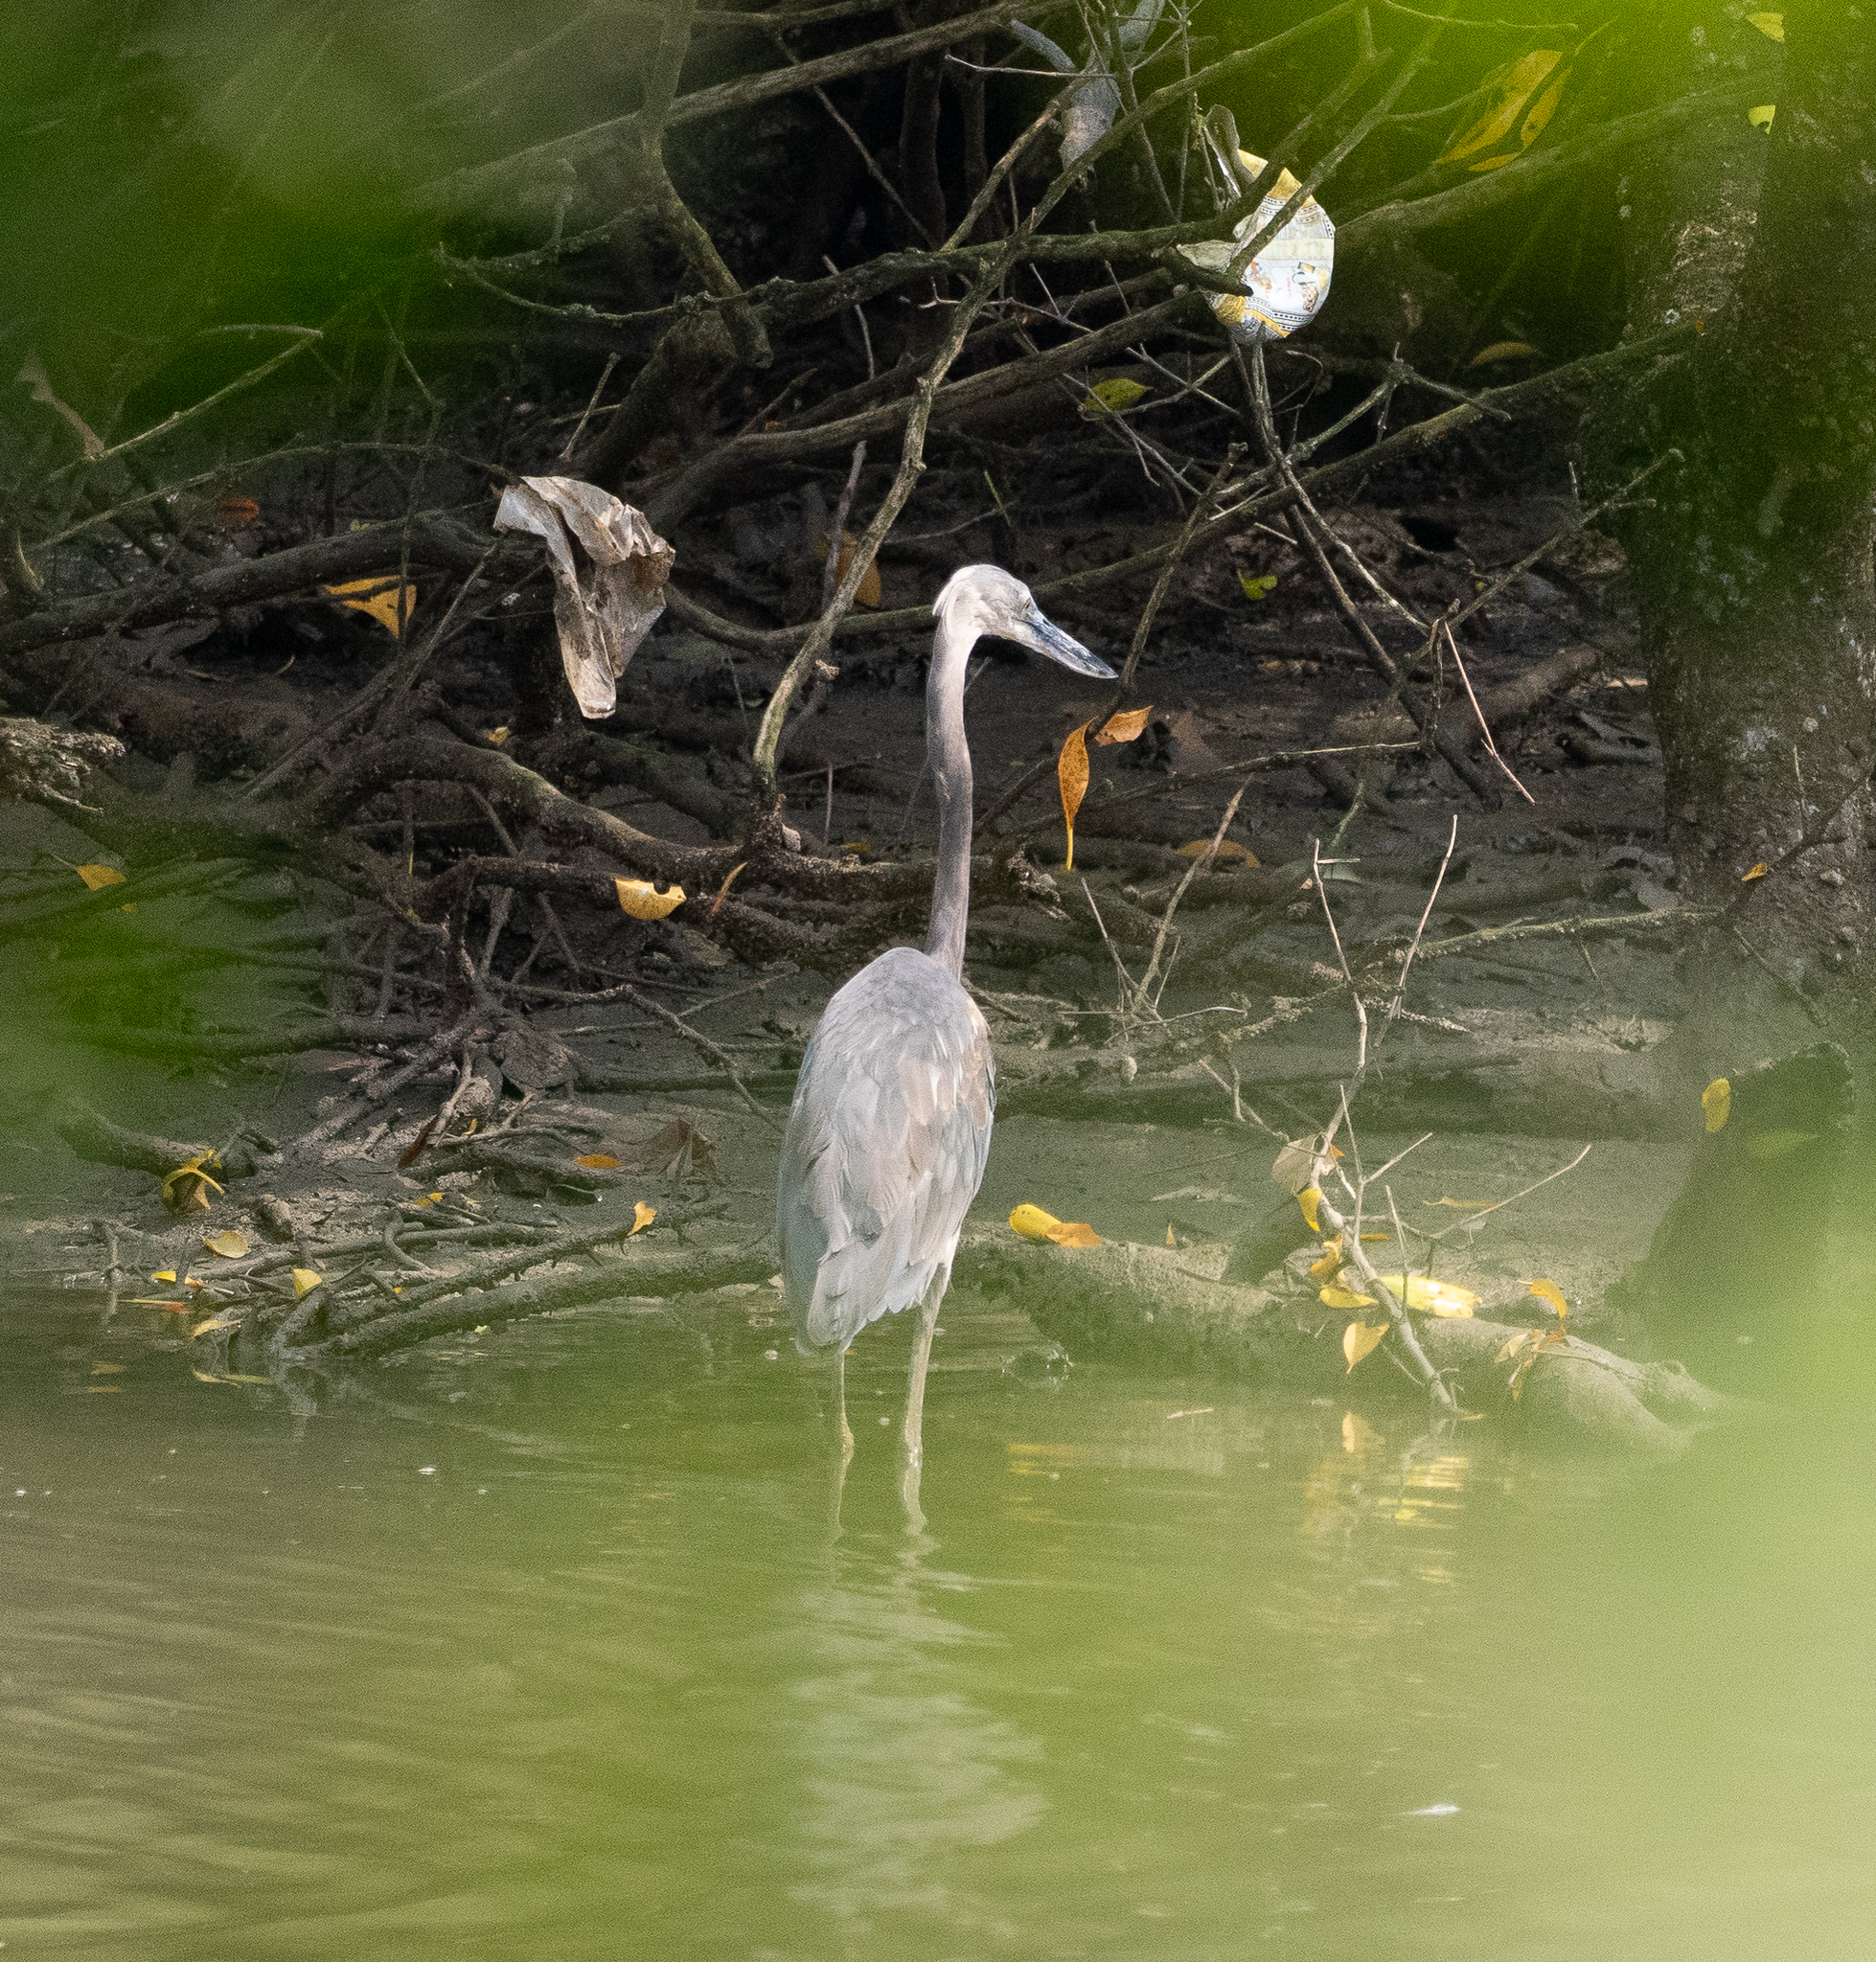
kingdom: Animalia
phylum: Chordata
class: Aves
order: Pelecaniformes
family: Ardeidae
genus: Ardea
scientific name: Ardea sumatrana
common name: Great-billed heron
